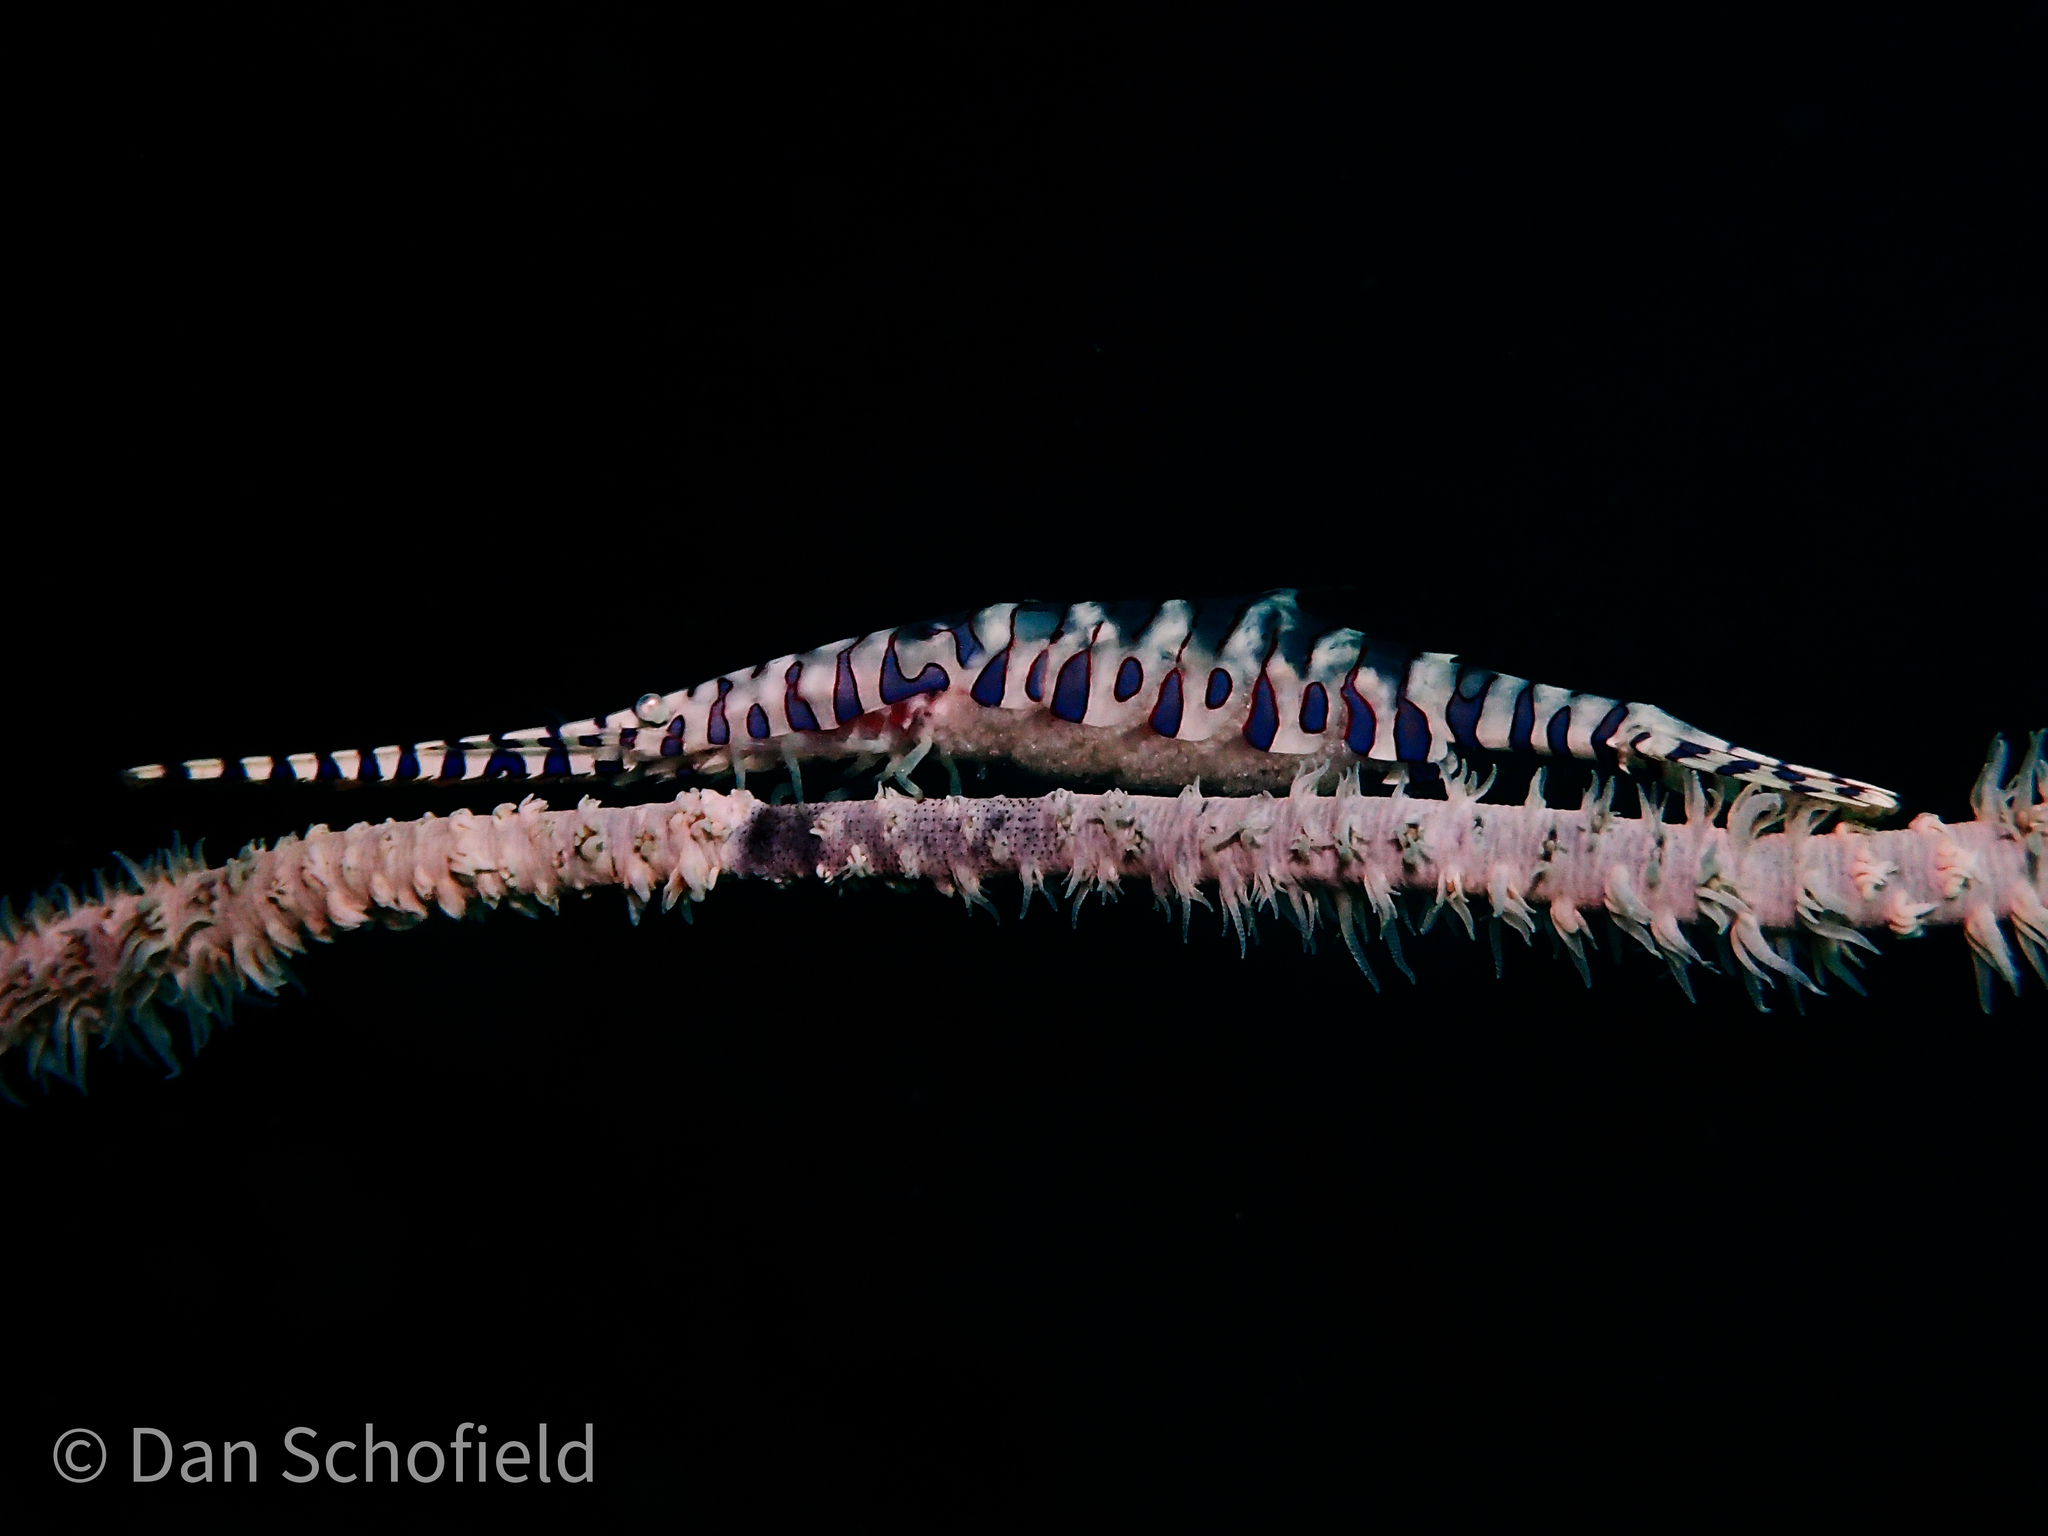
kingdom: Animalia
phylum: Arthropoda
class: Malacostraca
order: Decapoda
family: Hippolytidae
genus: Tozeuma
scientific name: Tozeuma armatum
